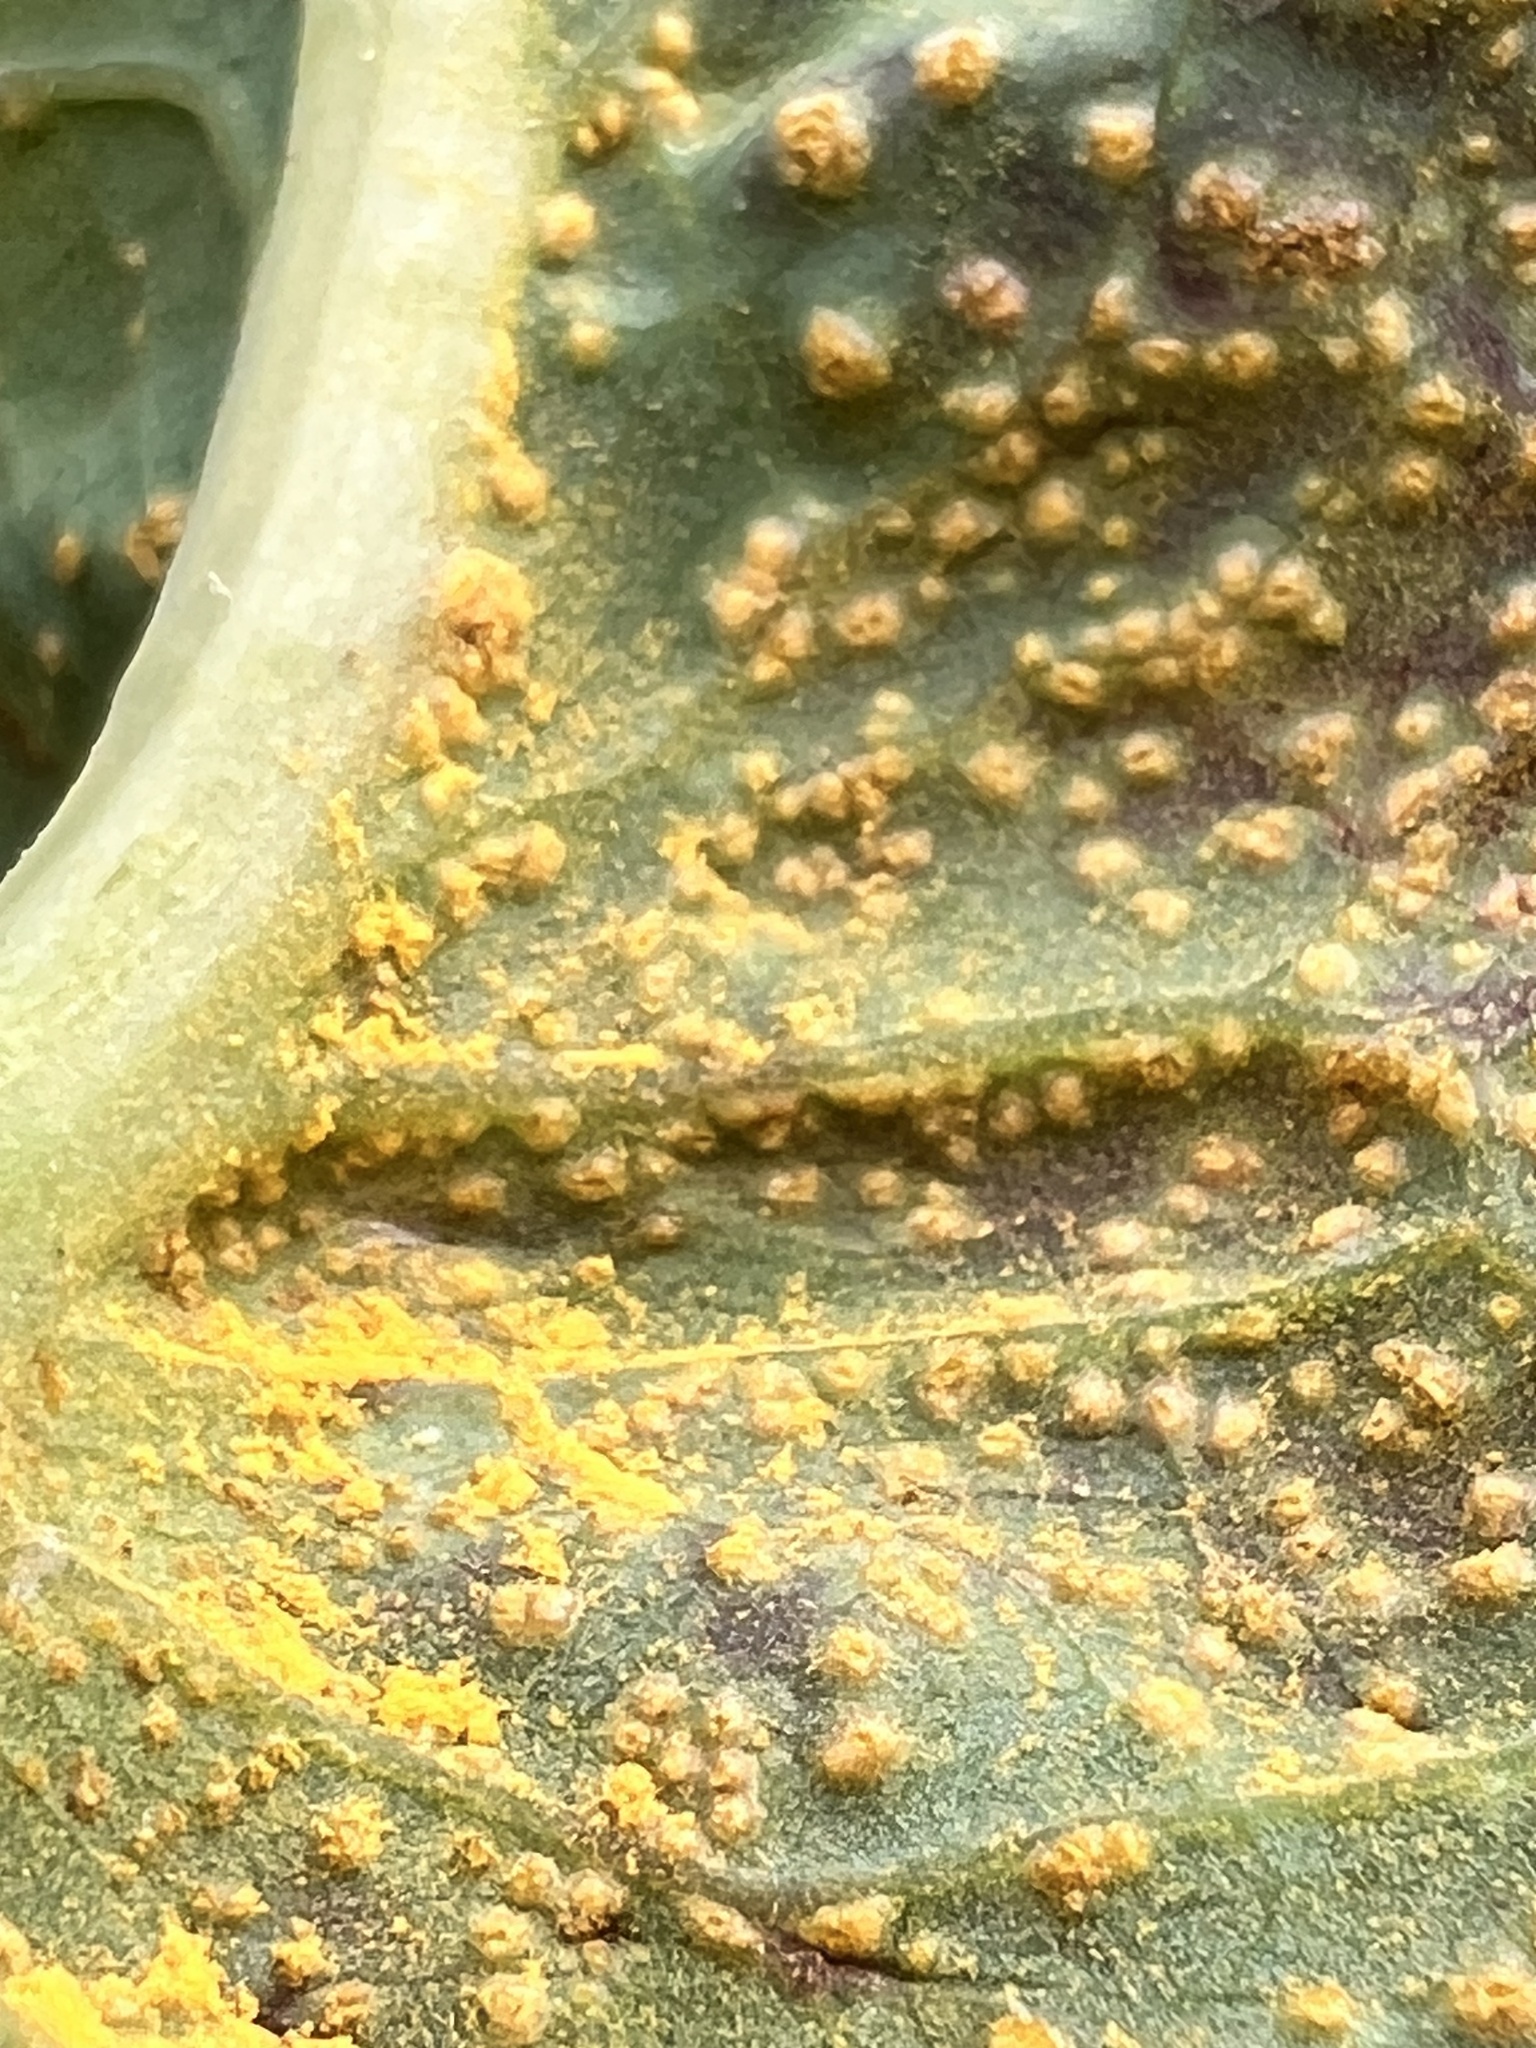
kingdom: Fungi
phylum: Basidiomycota
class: Pucciniomycetes
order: Pucciniales
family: Pucciniaceae
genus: Peristemma
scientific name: Peristemma pseudosphaeria
